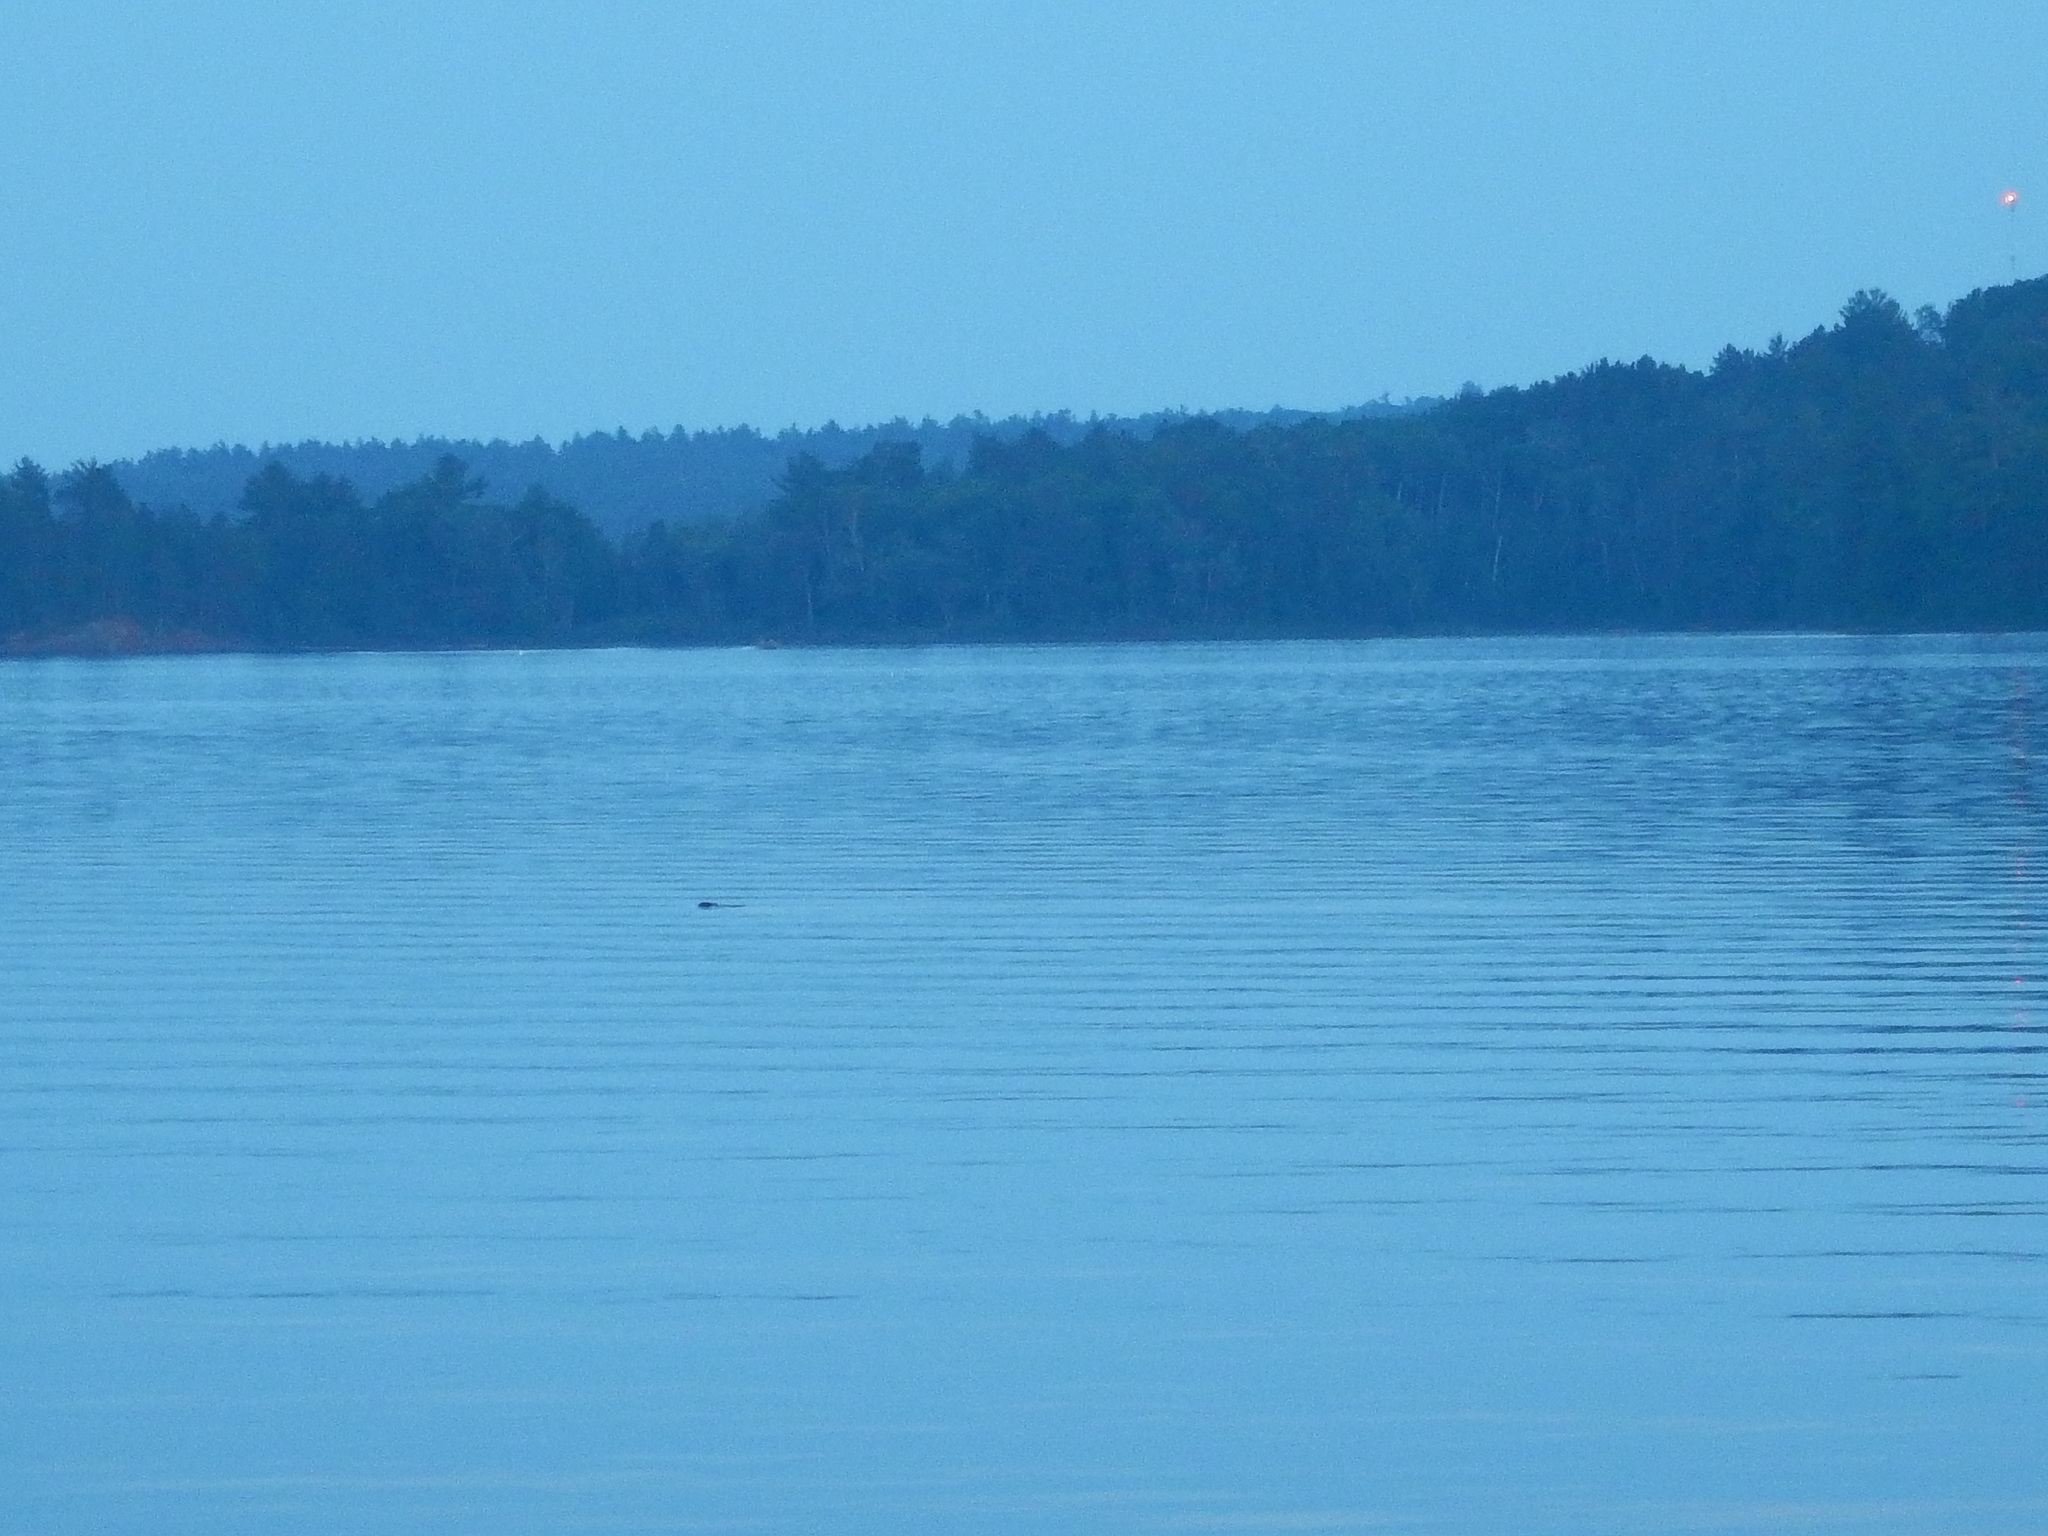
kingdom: Animalia
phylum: Chordata
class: Mammalia
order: Rodentia
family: Castoridae
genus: Castor
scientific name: Castor canadensis
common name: American beaver
